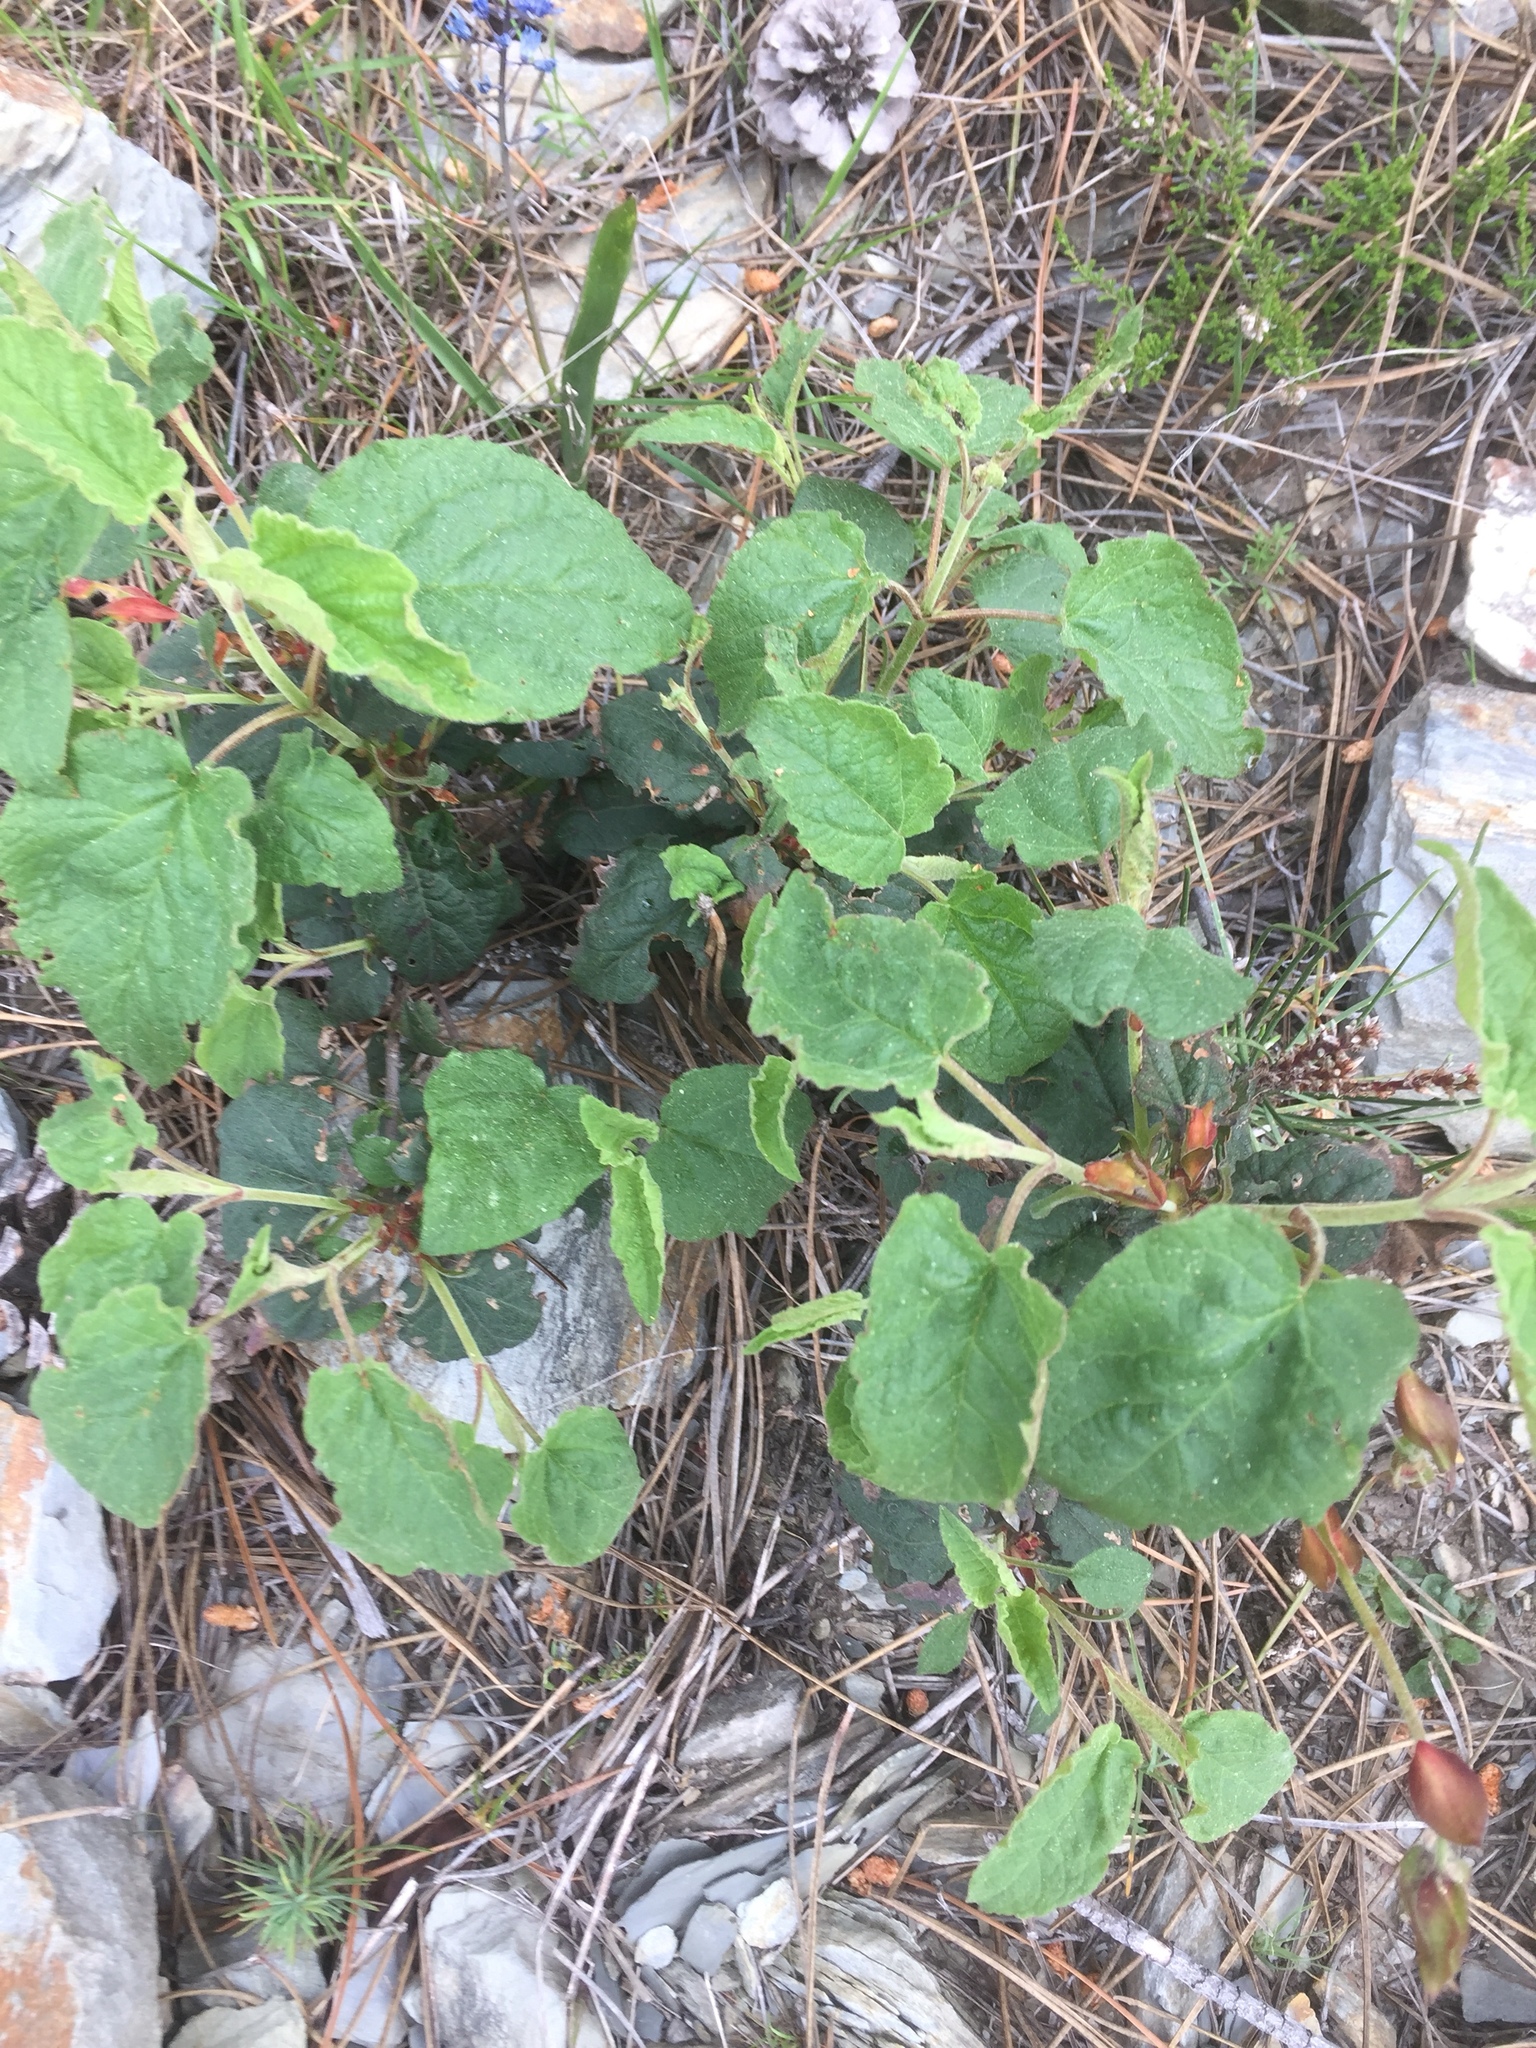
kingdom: Plantae
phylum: Tracheophyta
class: Magnoliopsida
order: Malvales
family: Cistaceae
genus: Cistus
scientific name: Cistus populifolius
